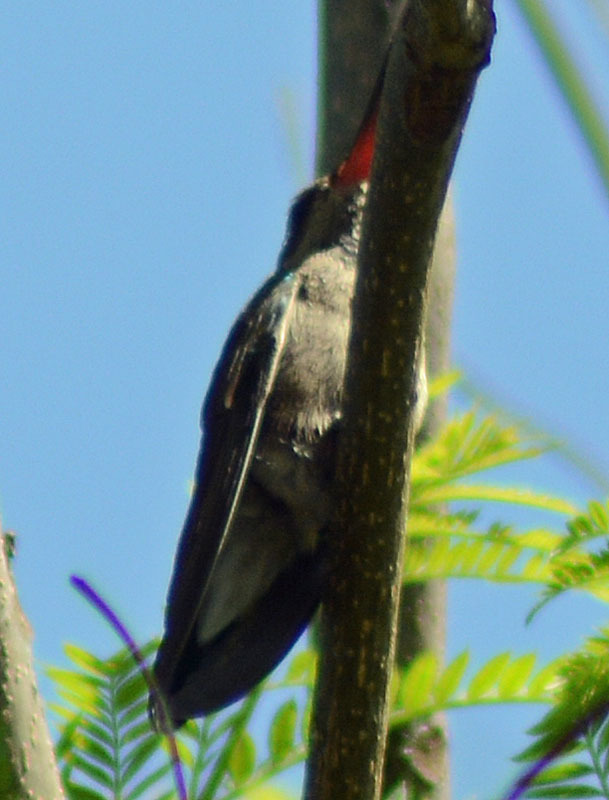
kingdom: Animalia
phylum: Chordata
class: Aves
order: Apodiformes
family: Trochilidae
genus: Cynanthus
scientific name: Cynanthus latirostris
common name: Broad-billed hummingbird
